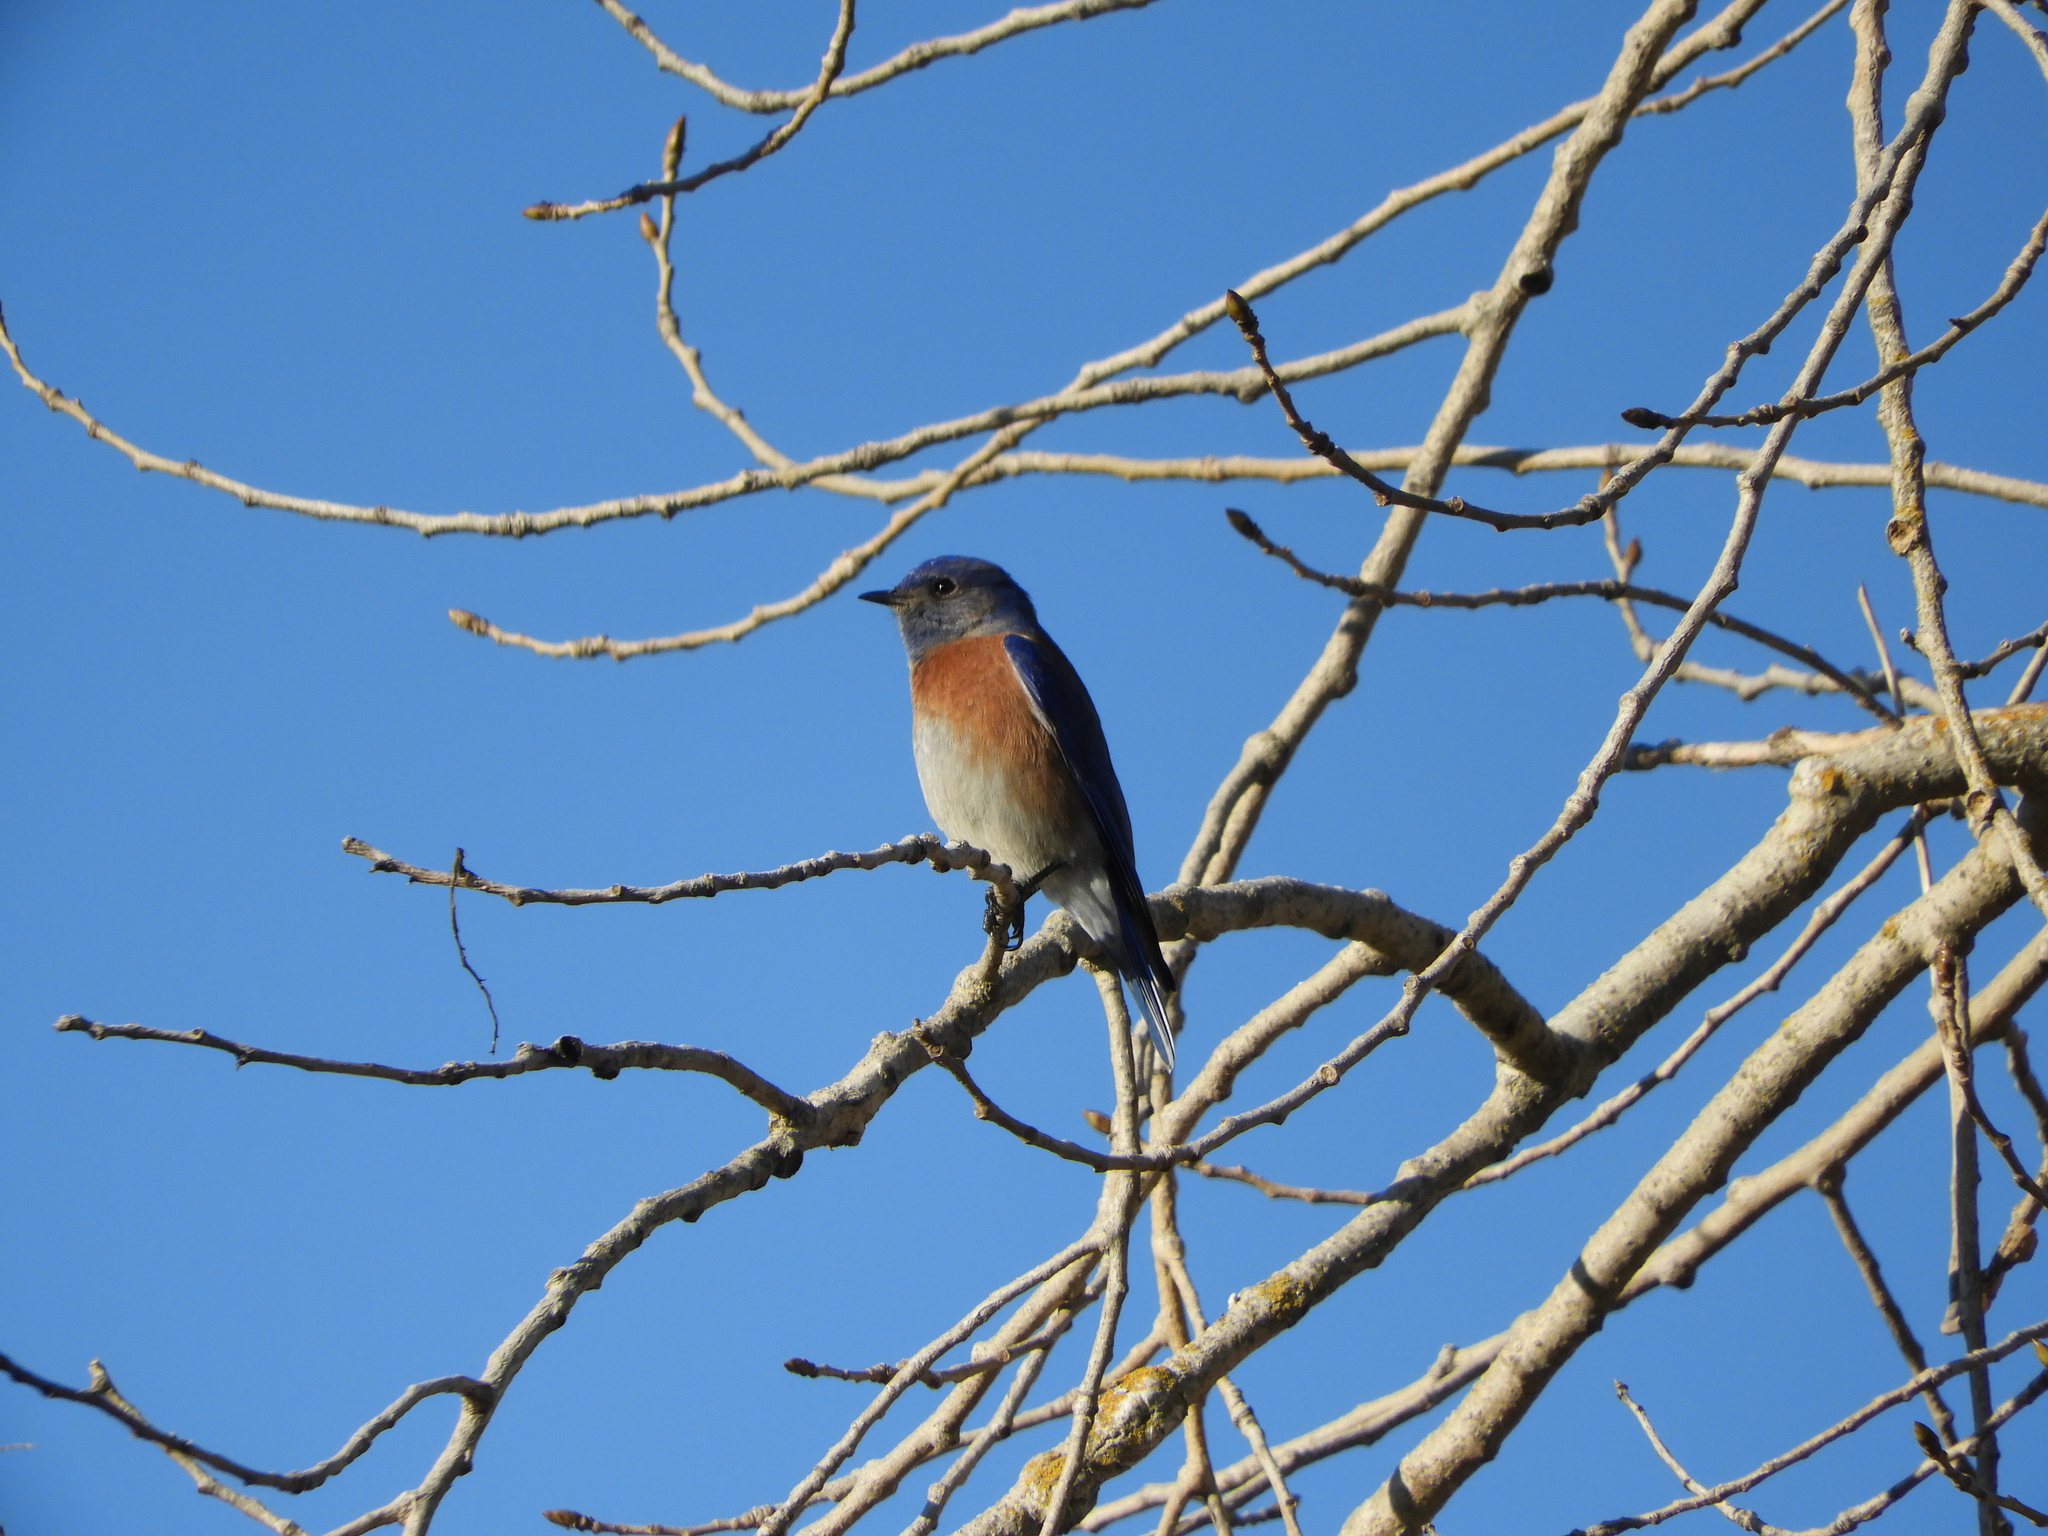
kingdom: Animalia
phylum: Chordata
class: Aves
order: Passeriformes
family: Turdidae
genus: Sialia
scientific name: Sialia mexicana
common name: Western bluebird
